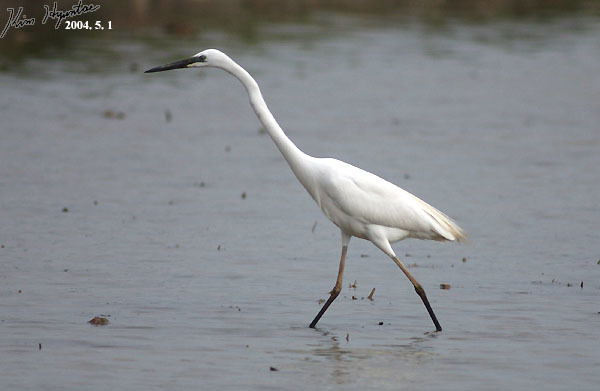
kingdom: Animalia
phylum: Chordata
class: Aves
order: Pelecaniformes
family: Ardeidae
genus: Ardea
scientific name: Ardea modesta
